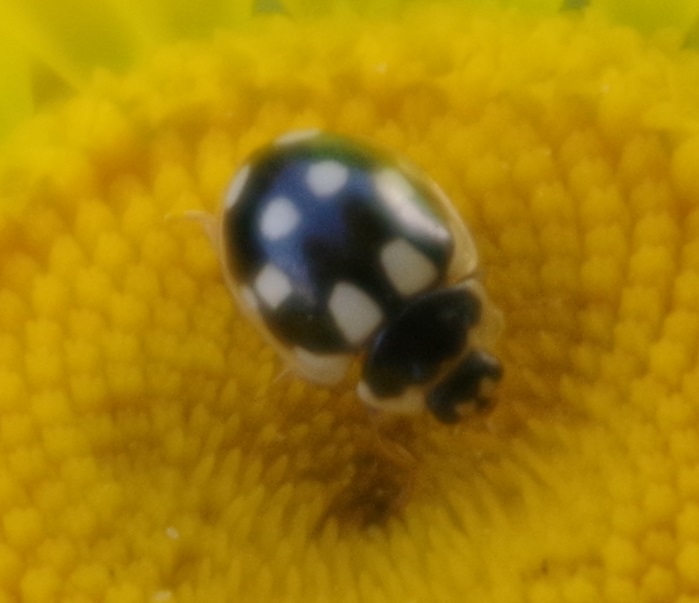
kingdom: Animalia
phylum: Arthropoda
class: Insecta
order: Coleoptera
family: Coccinellidae
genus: Propylaea
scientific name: Propylaea quatuordecimpunctata
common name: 14-spotted ladybird beetle
